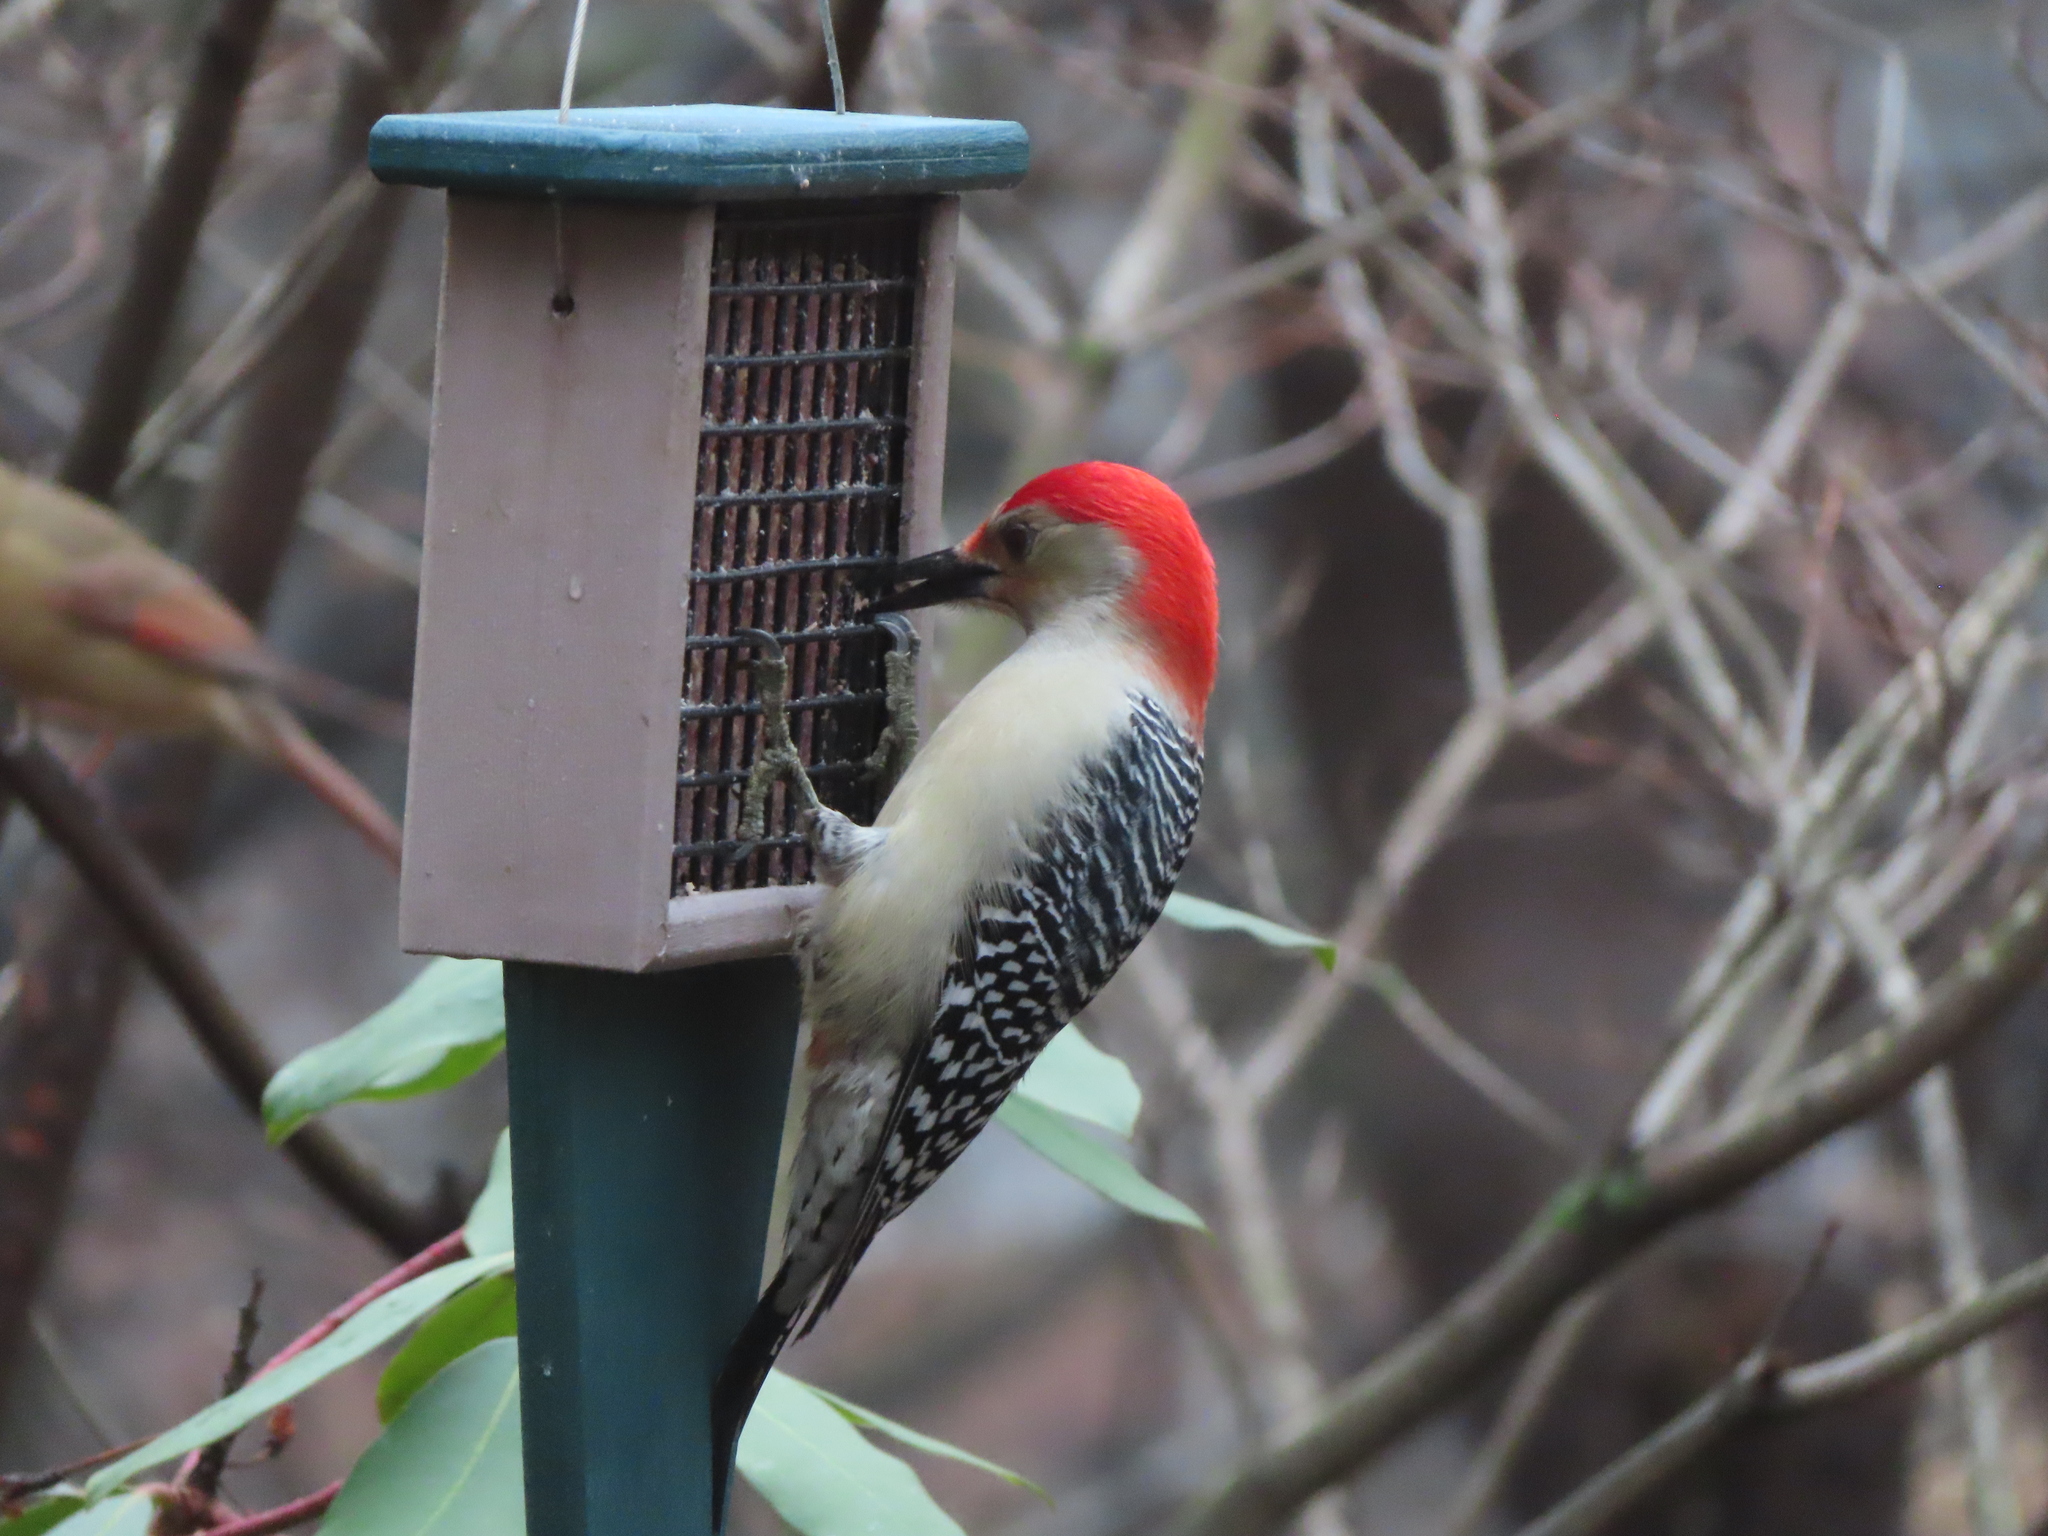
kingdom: Animalia
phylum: Chordata
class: Aves
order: Piciformes
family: Picidae
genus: Melanerpes
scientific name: Melanerpes carolinus
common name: Red-bellied woodpecker
